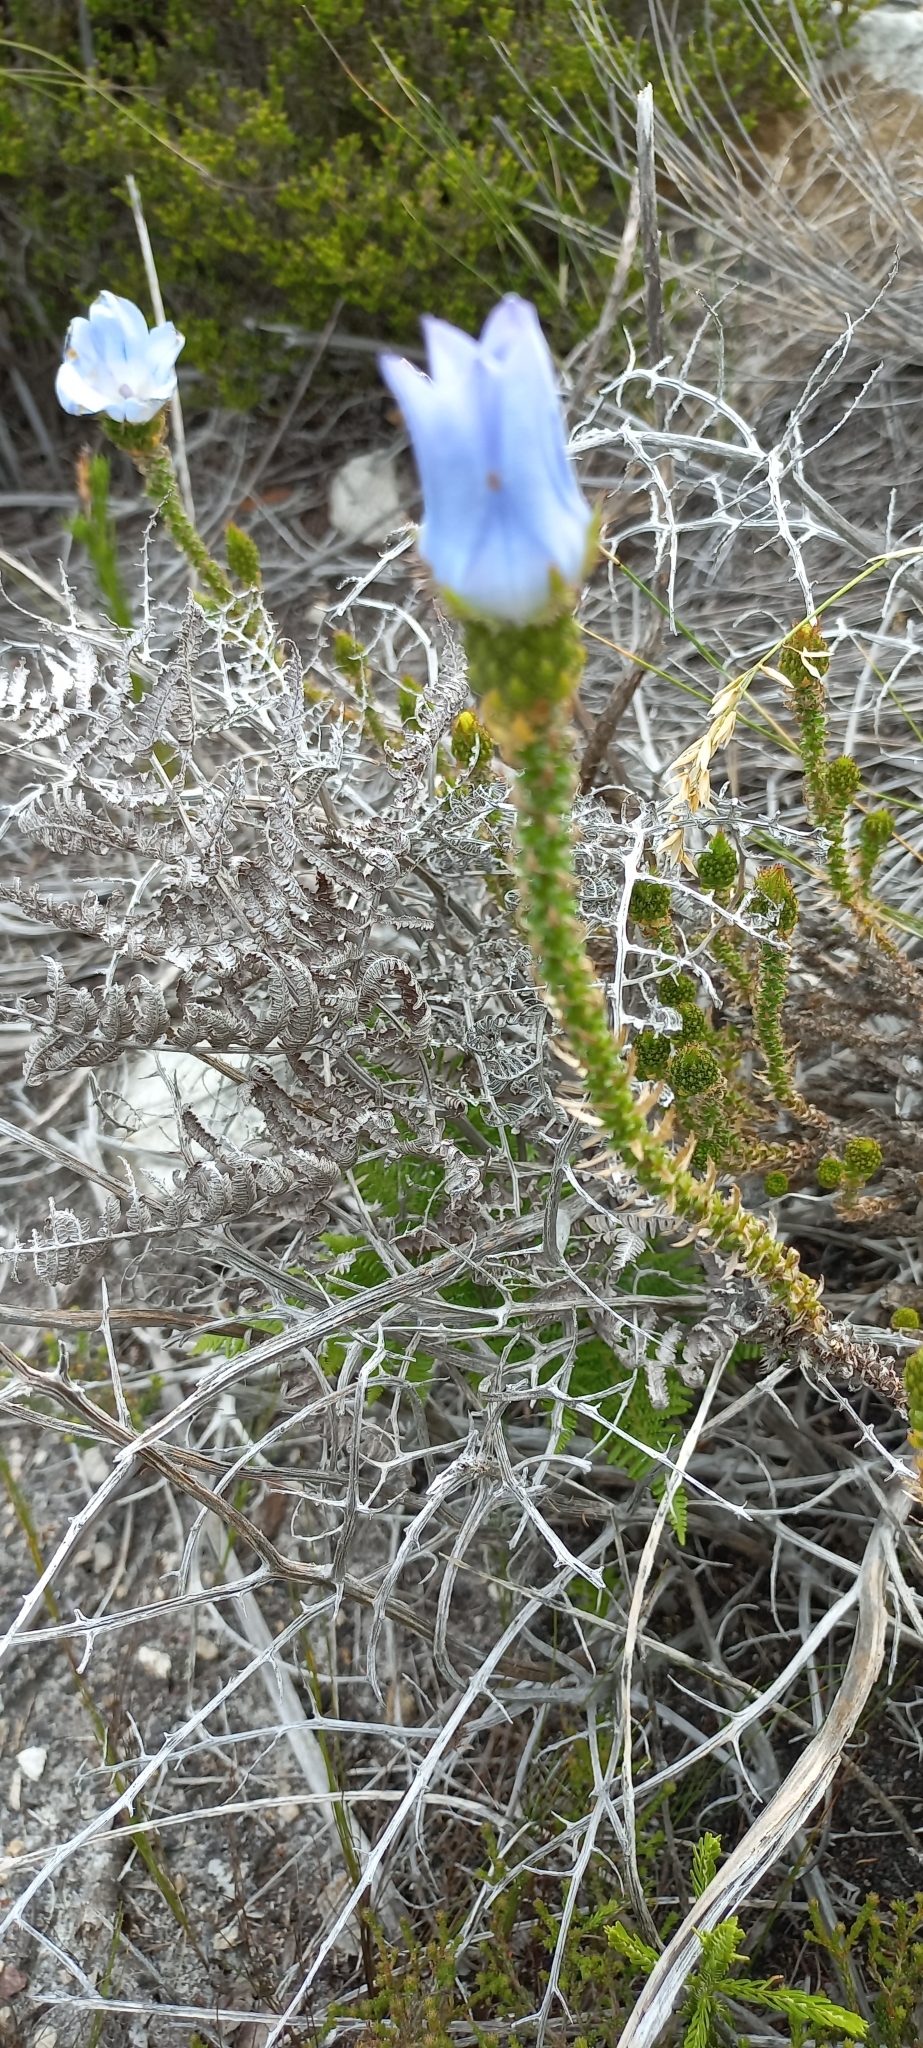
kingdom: Plantae
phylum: Tracheophyta
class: Magnoliopsida
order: Asterales
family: Campanulaceae
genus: Roella
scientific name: Roella incurva
